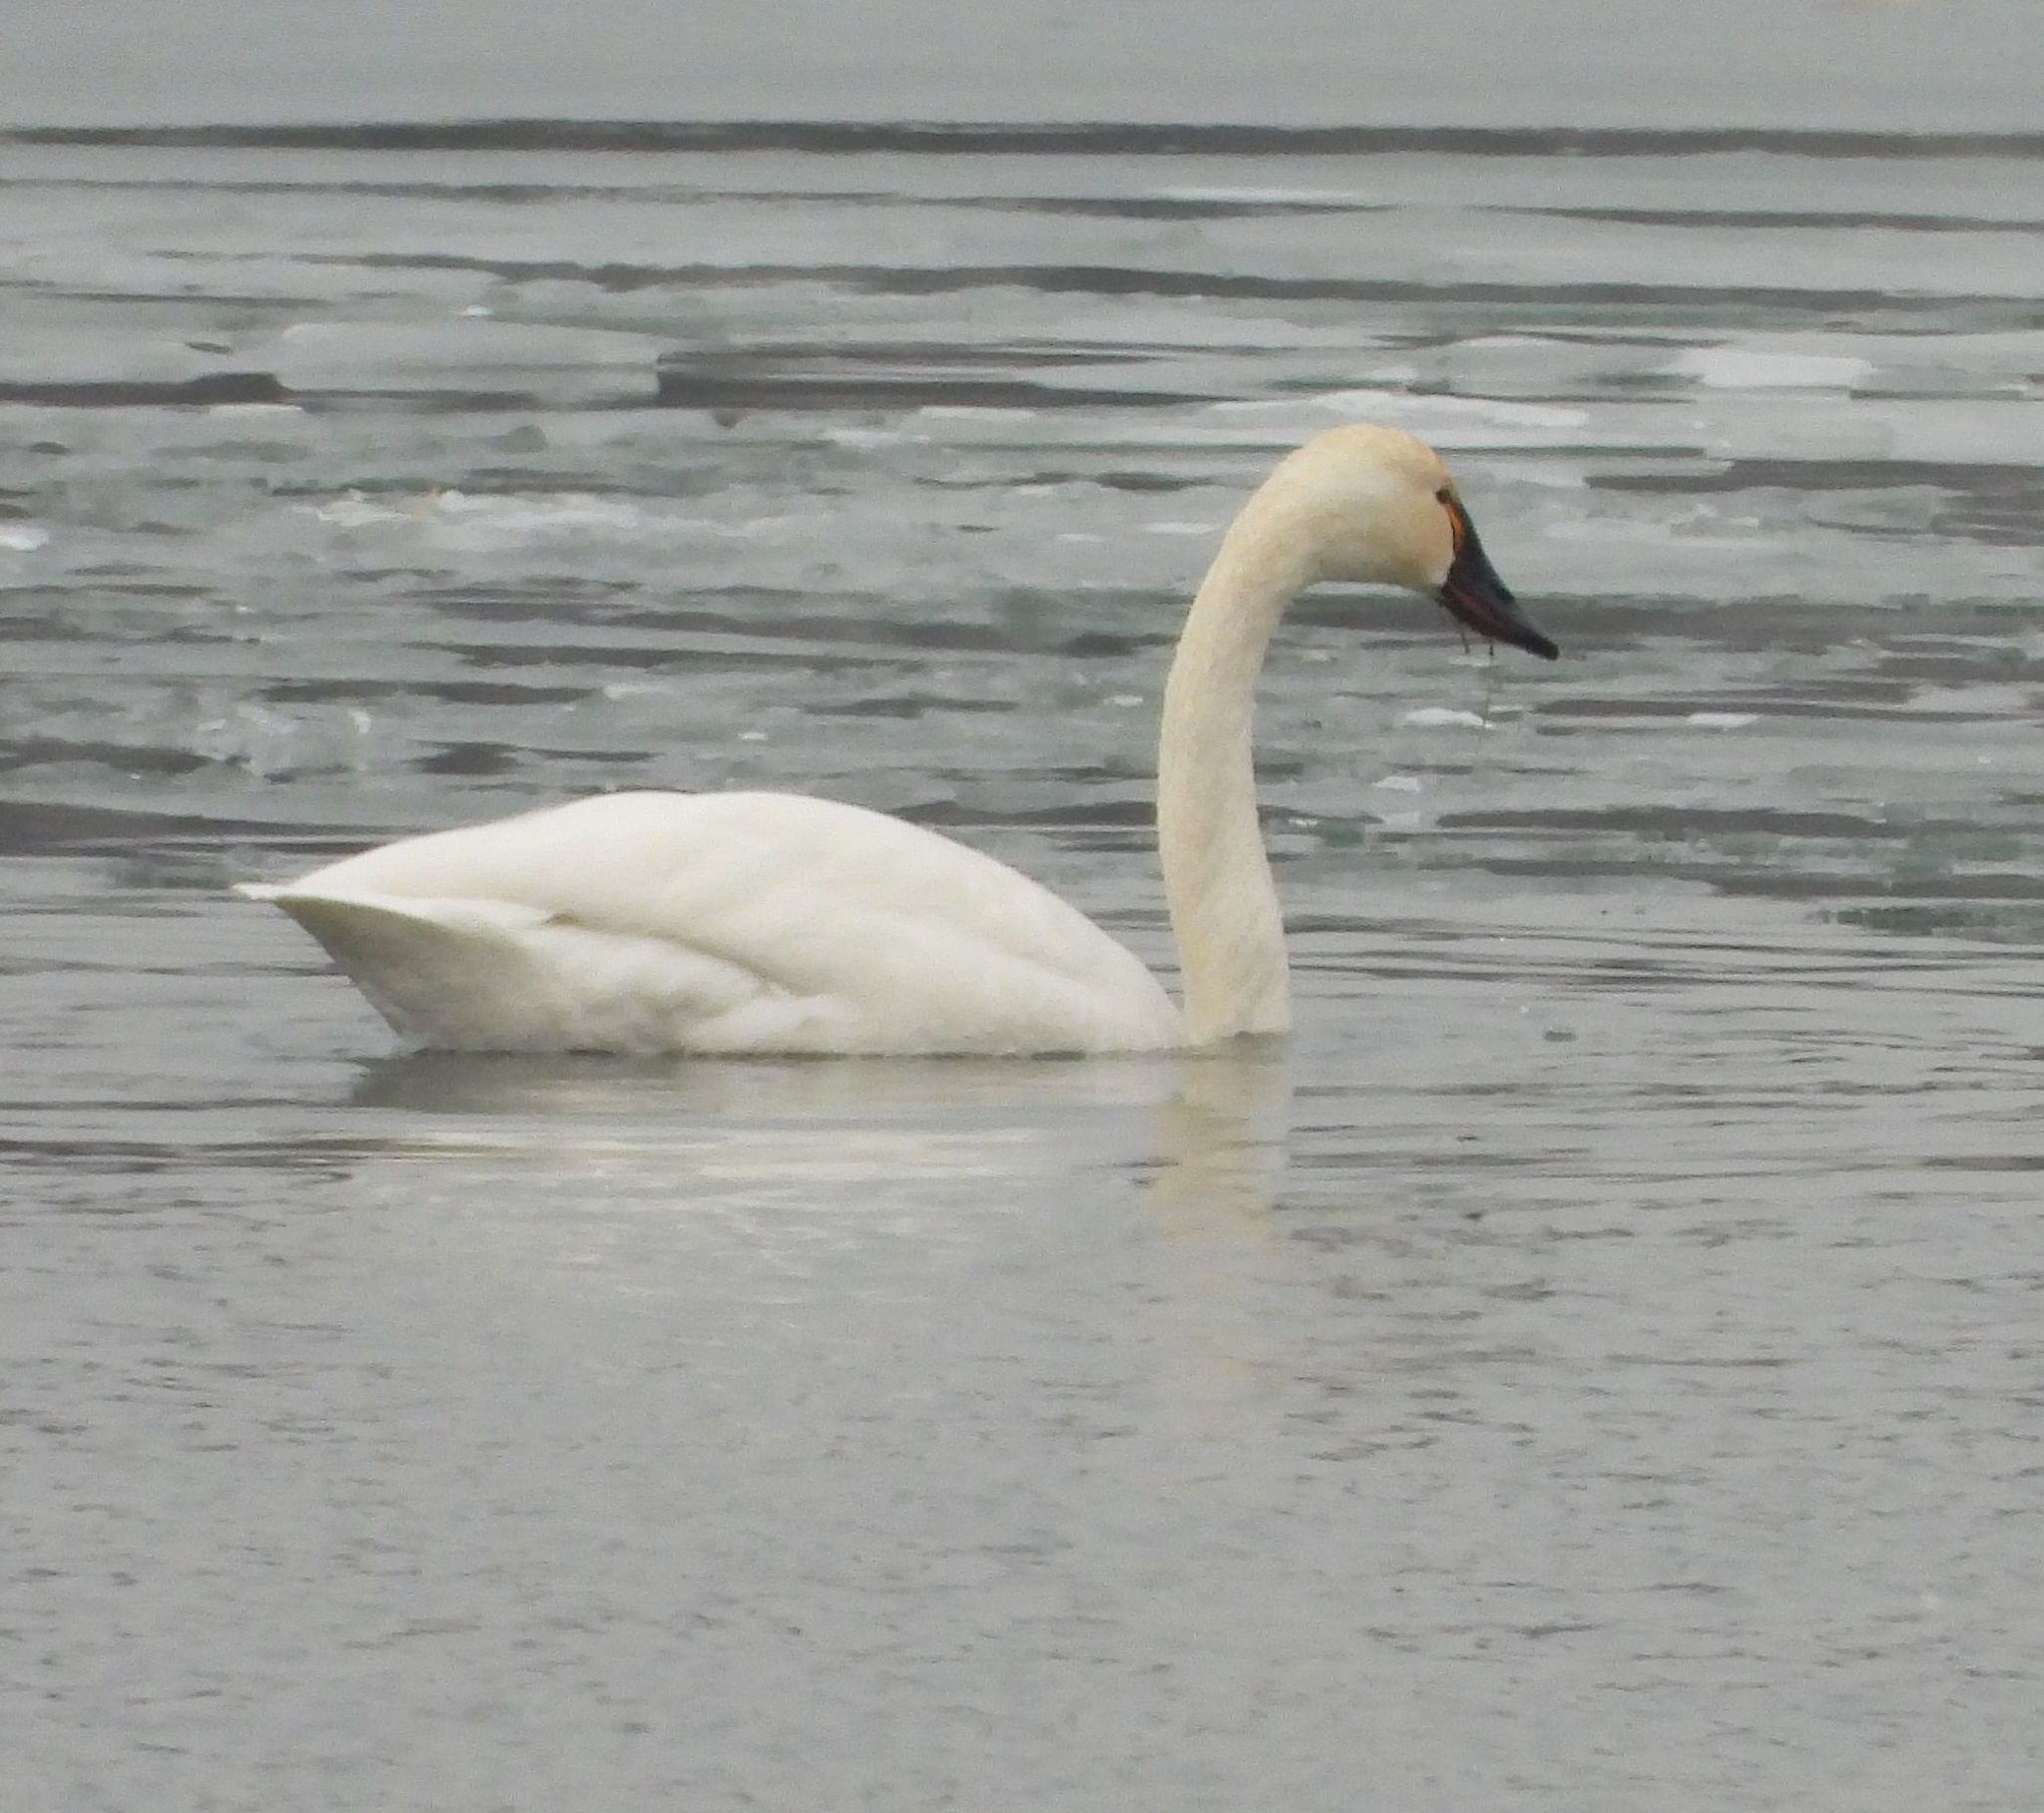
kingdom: Animalia
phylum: Chordata
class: Aves
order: Anseriformes
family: Anatidae
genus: Cygnus
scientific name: Cygnus columbianus
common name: Tundra swan
